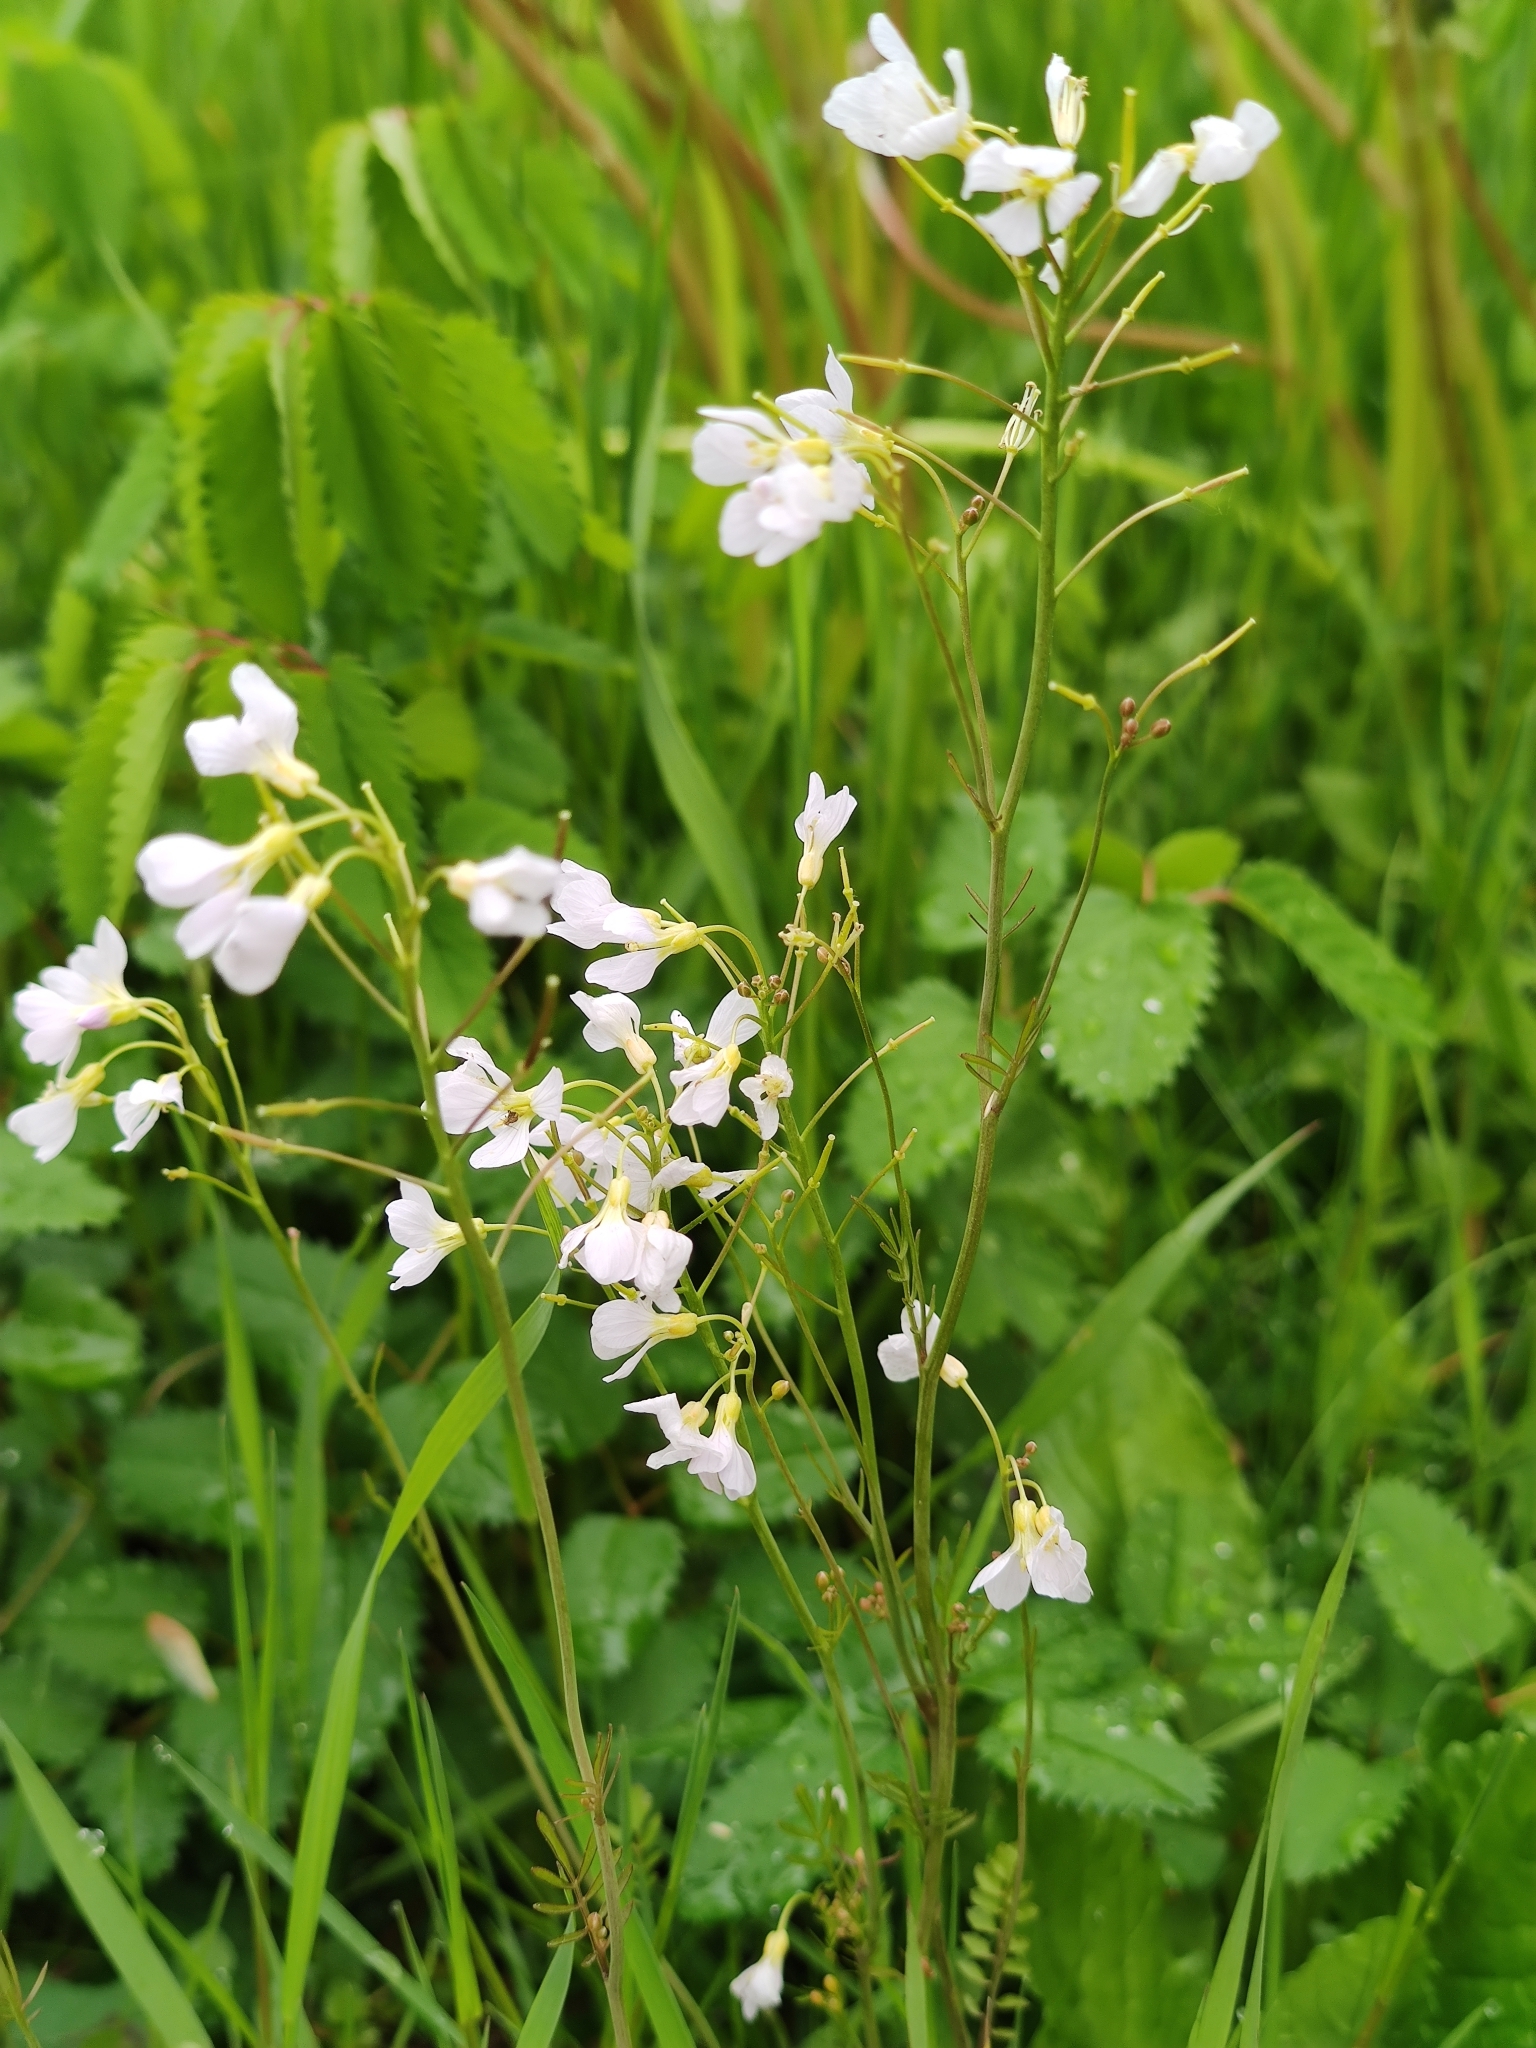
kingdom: Plantae
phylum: Tracheophyta
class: Magnoliopsida
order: Brassicales
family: Brassicaceae
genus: Cardamine
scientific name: Cardamine pratensis
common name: Cuckoo flower
